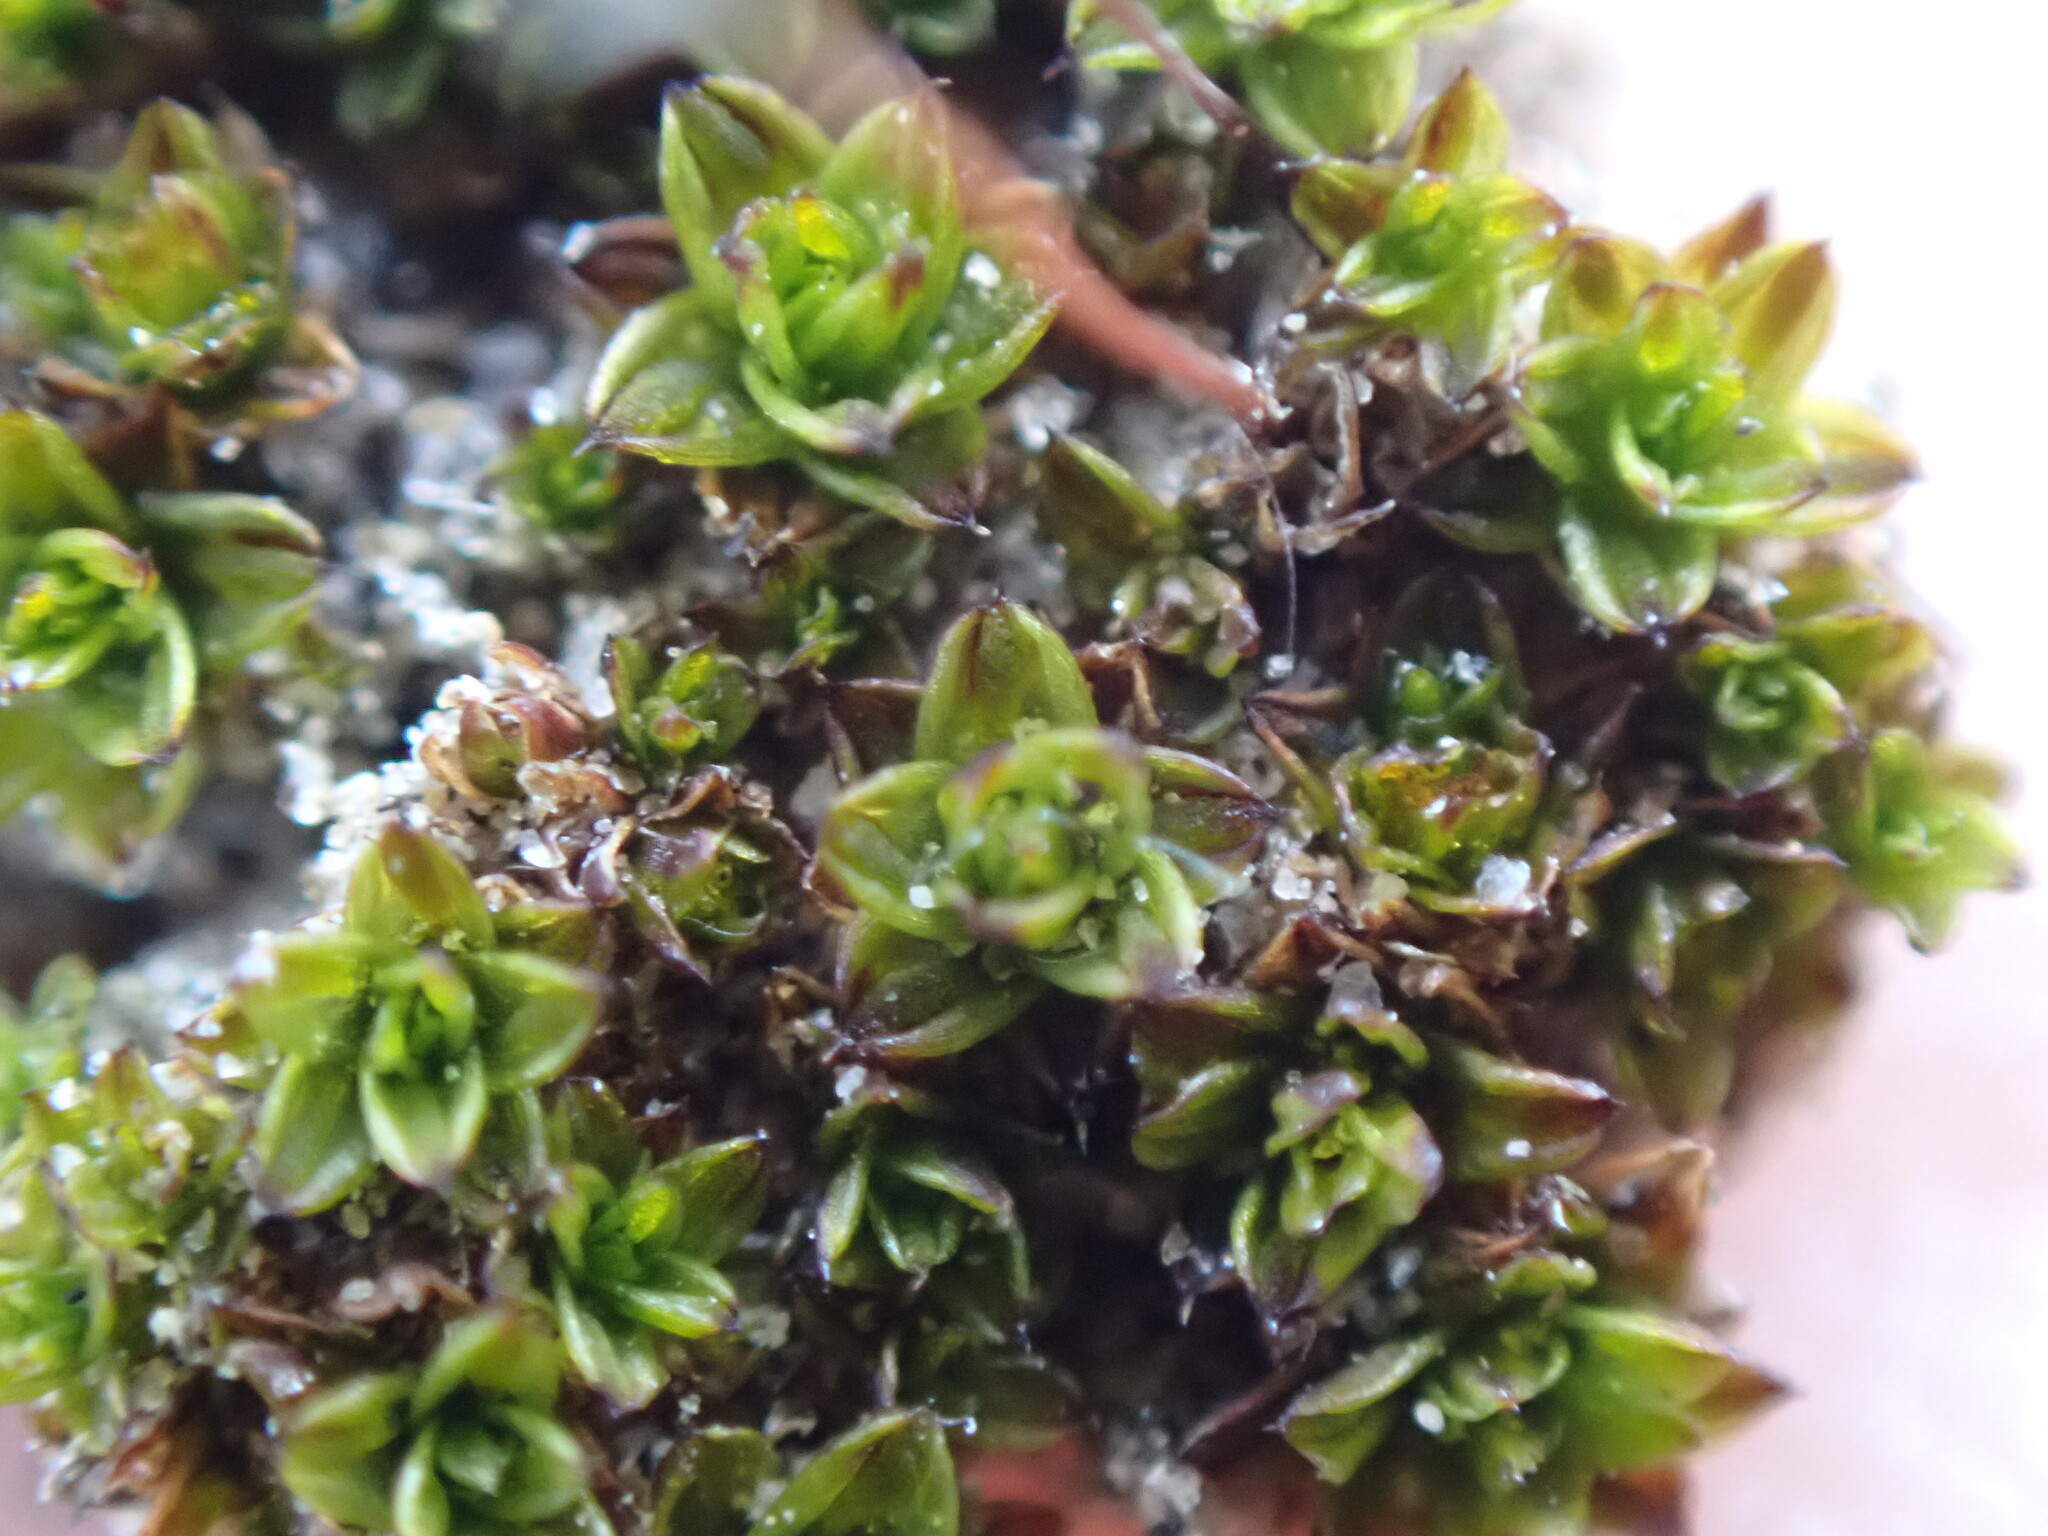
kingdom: Plantae
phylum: Bryophyta
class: Bryopsida
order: Pottiales
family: Pottiaceae
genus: Tortula
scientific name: Tortula atrovirens
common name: Rib-leaf moss
